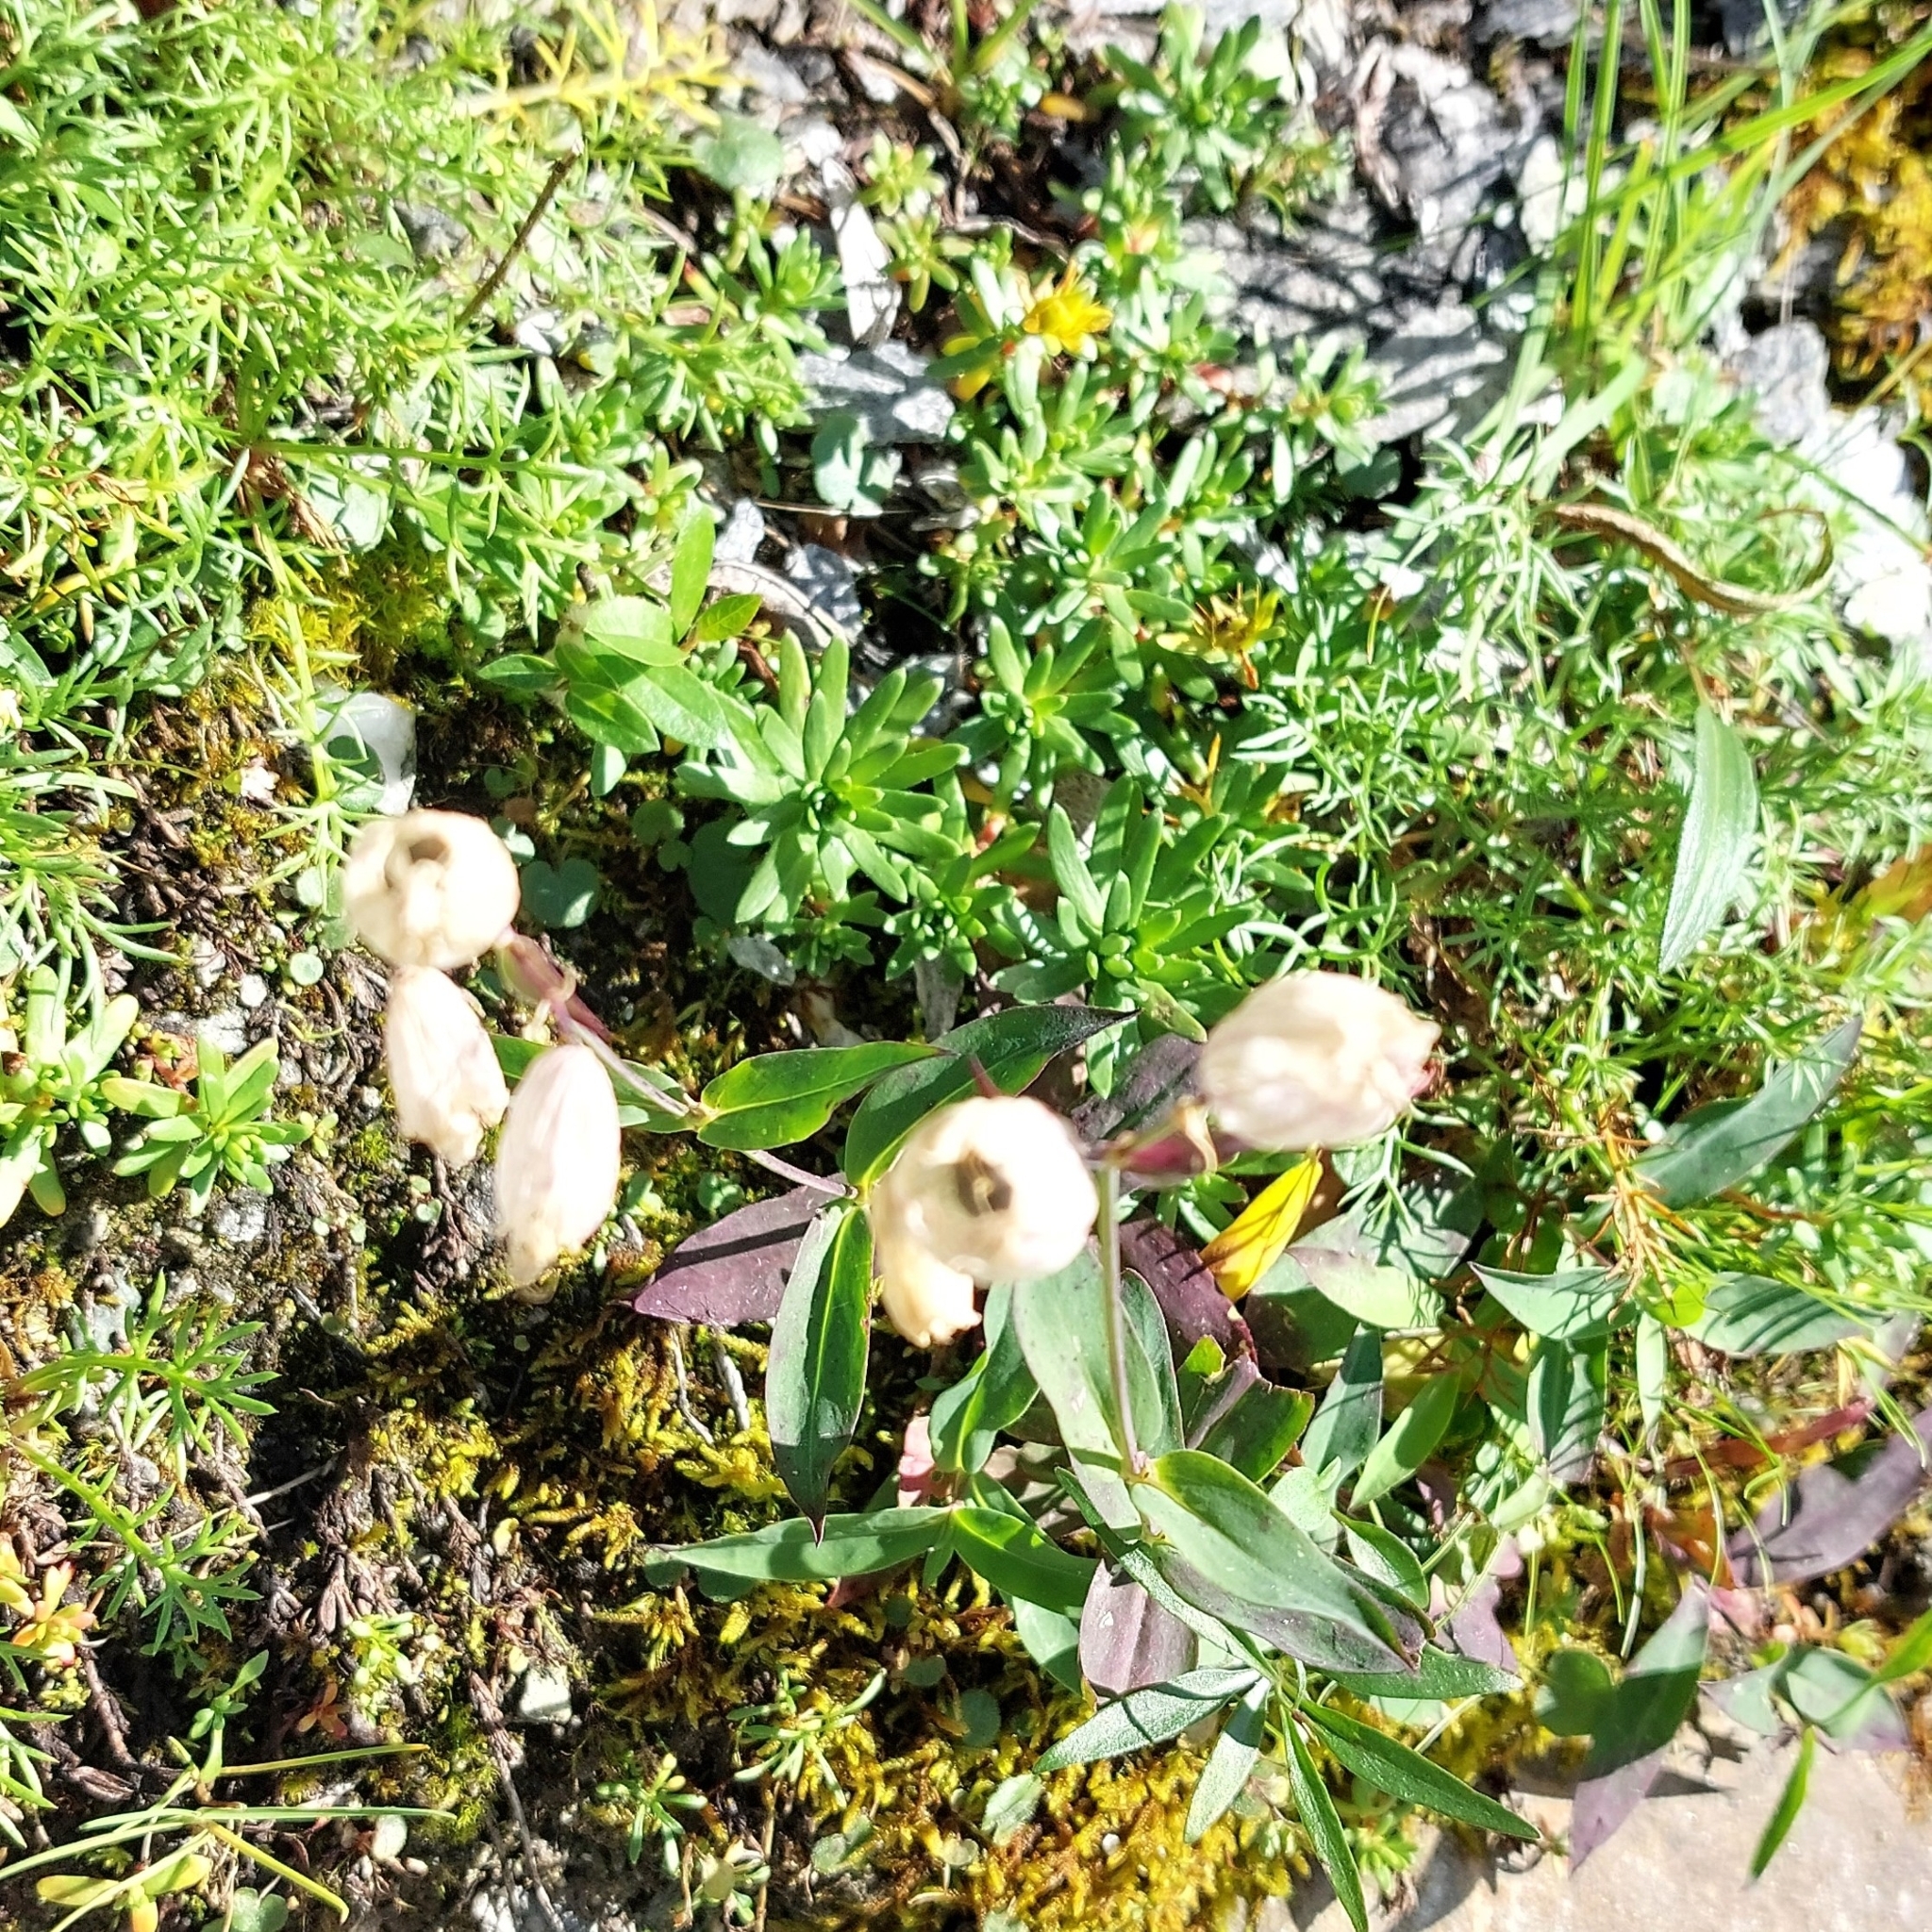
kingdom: Plantae
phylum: Tracheophyta
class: Magnoliopsida
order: Caryophyllales
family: Caryophyllaceae
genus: Silene
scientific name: Silene vulgaris
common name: Bladder campion
